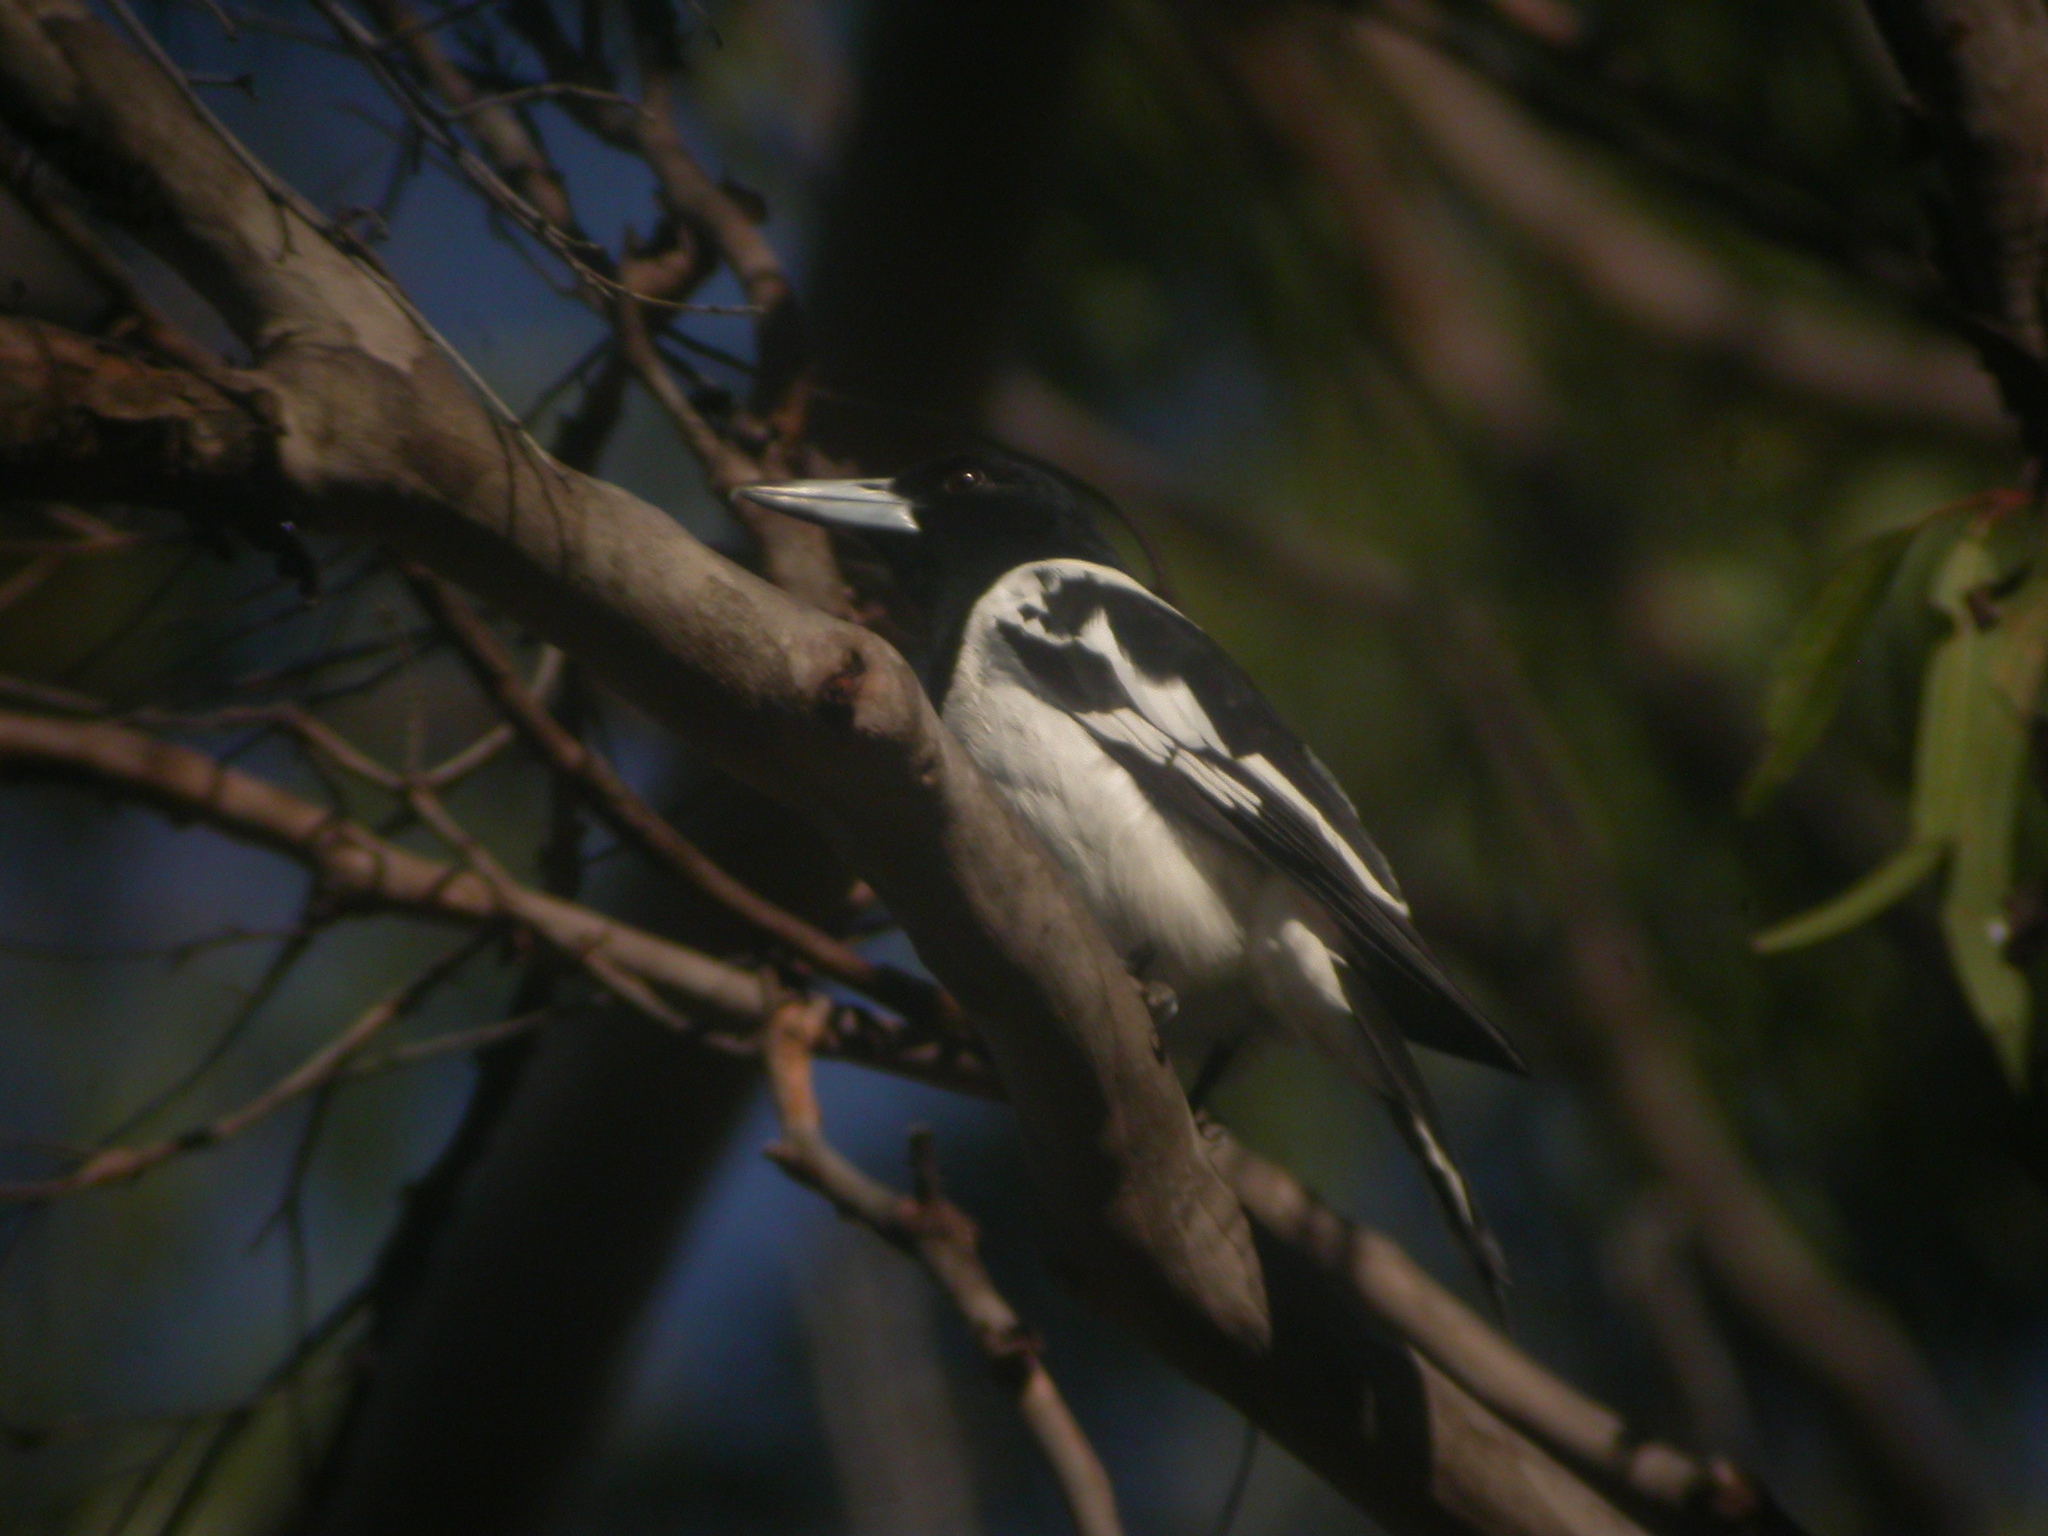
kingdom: Animalia
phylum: Chordata
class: Aves
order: Passeriformes
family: Cracticidae
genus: Cracticus
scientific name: Cracticus nigrogularis
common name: Pied butcherbird
